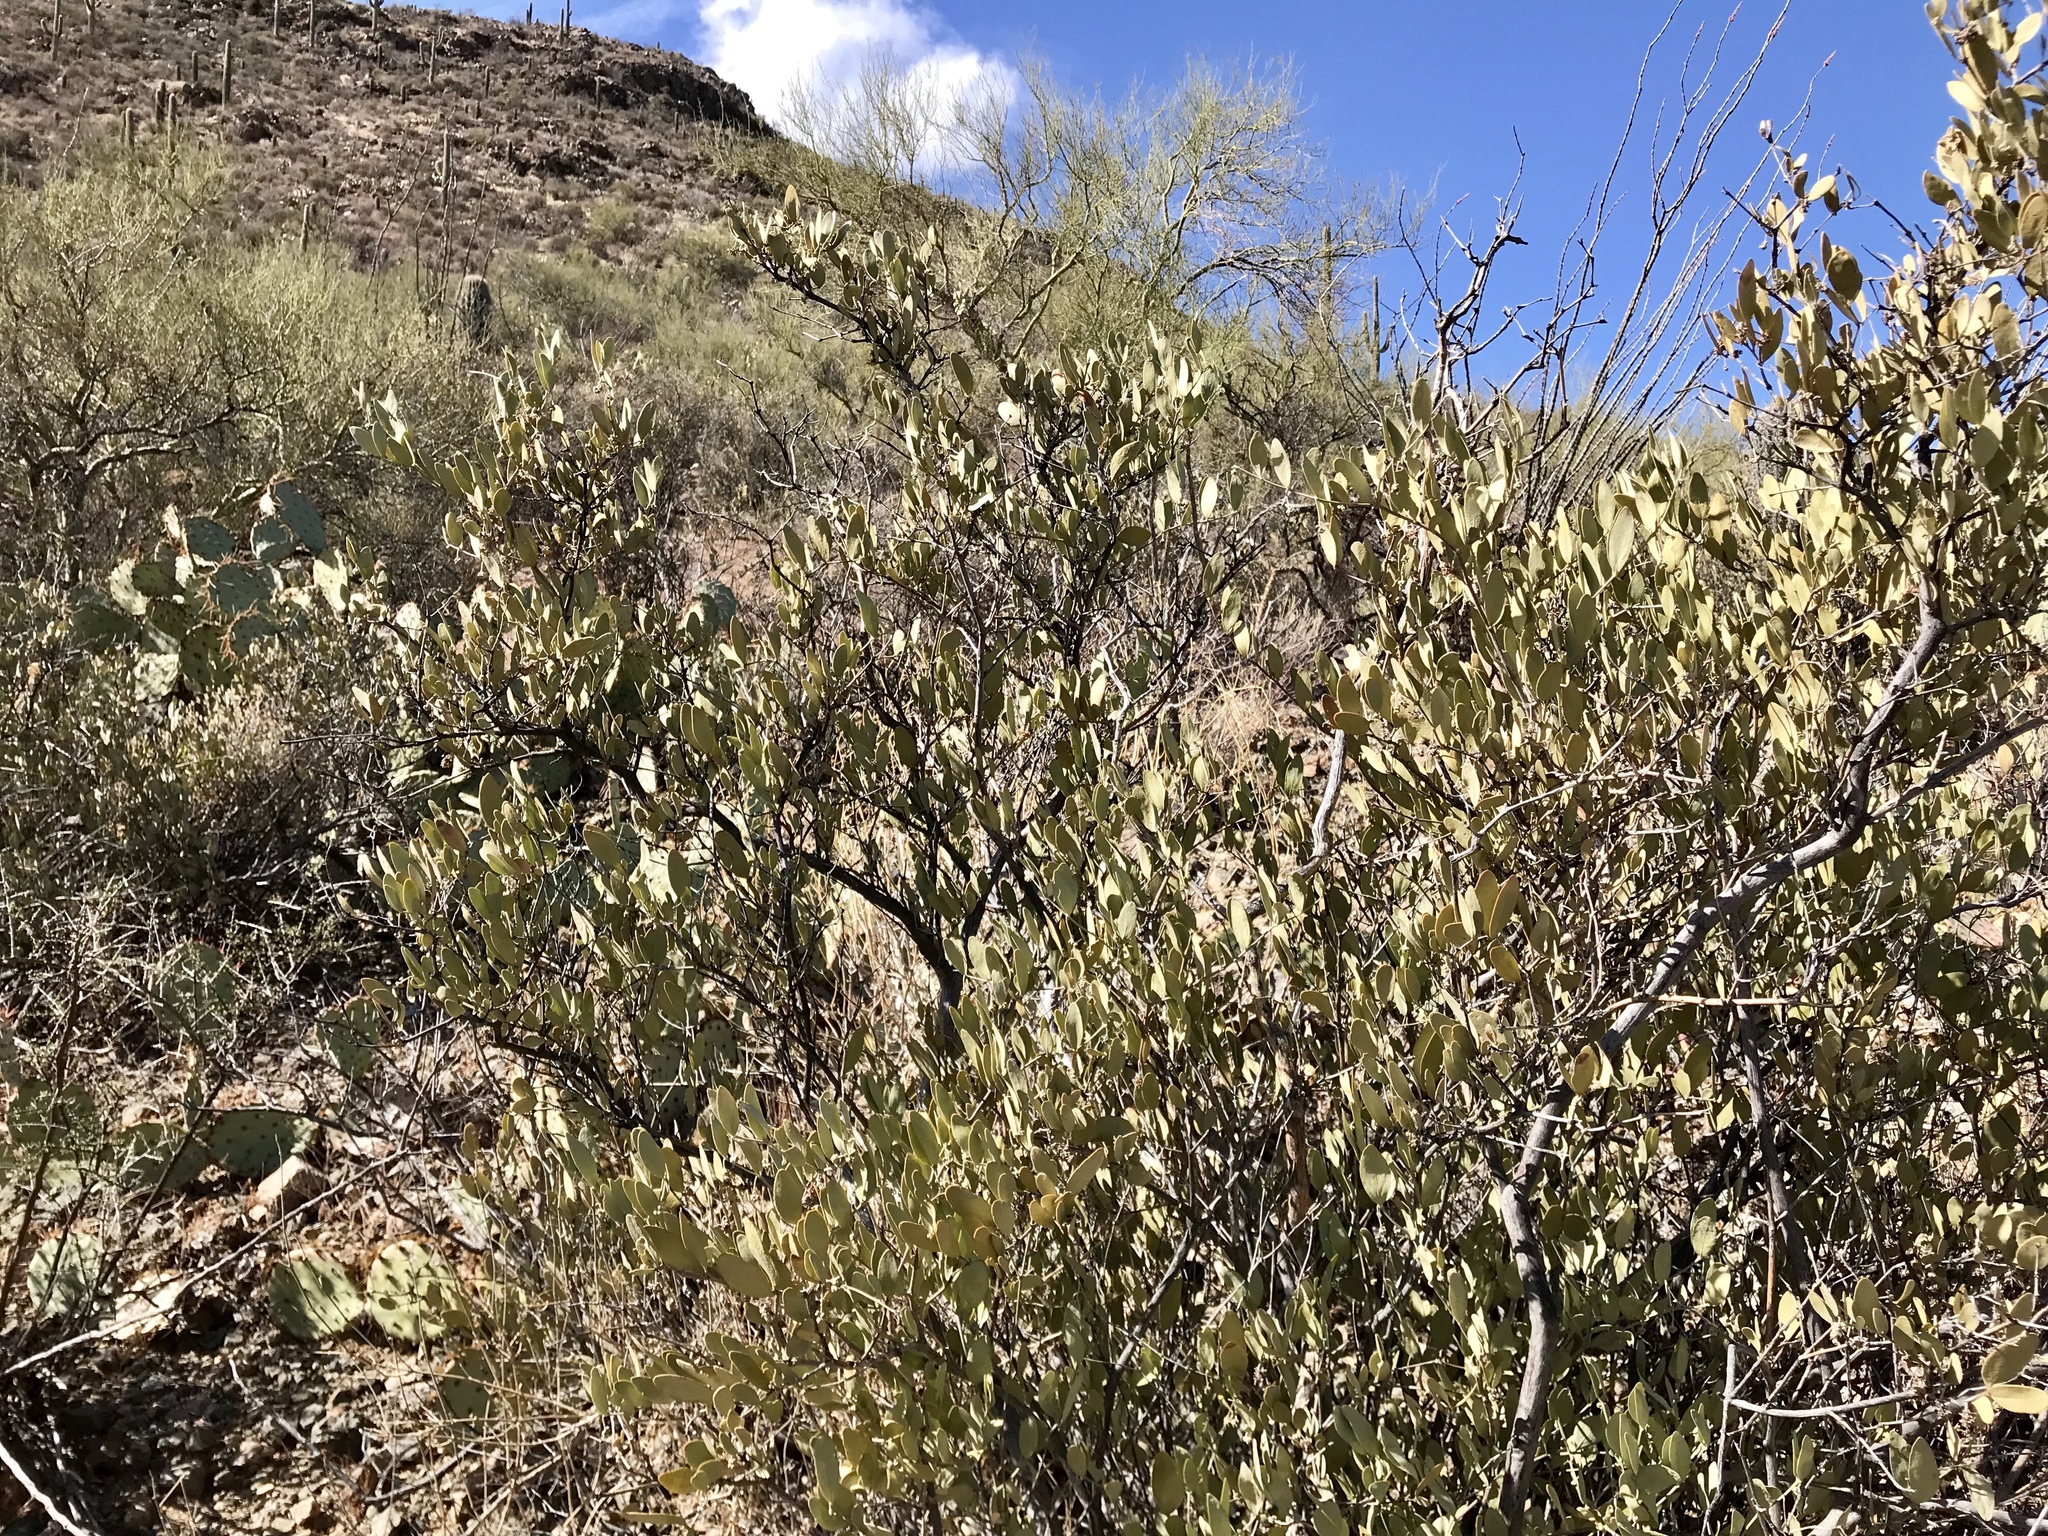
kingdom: Plantae
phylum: Tracheophyta
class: Magnoliopsida
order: Caryophyllales
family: Simmondsiaceae
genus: Simmondsia
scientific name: Simmondsia chinensis
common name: Jojoba
